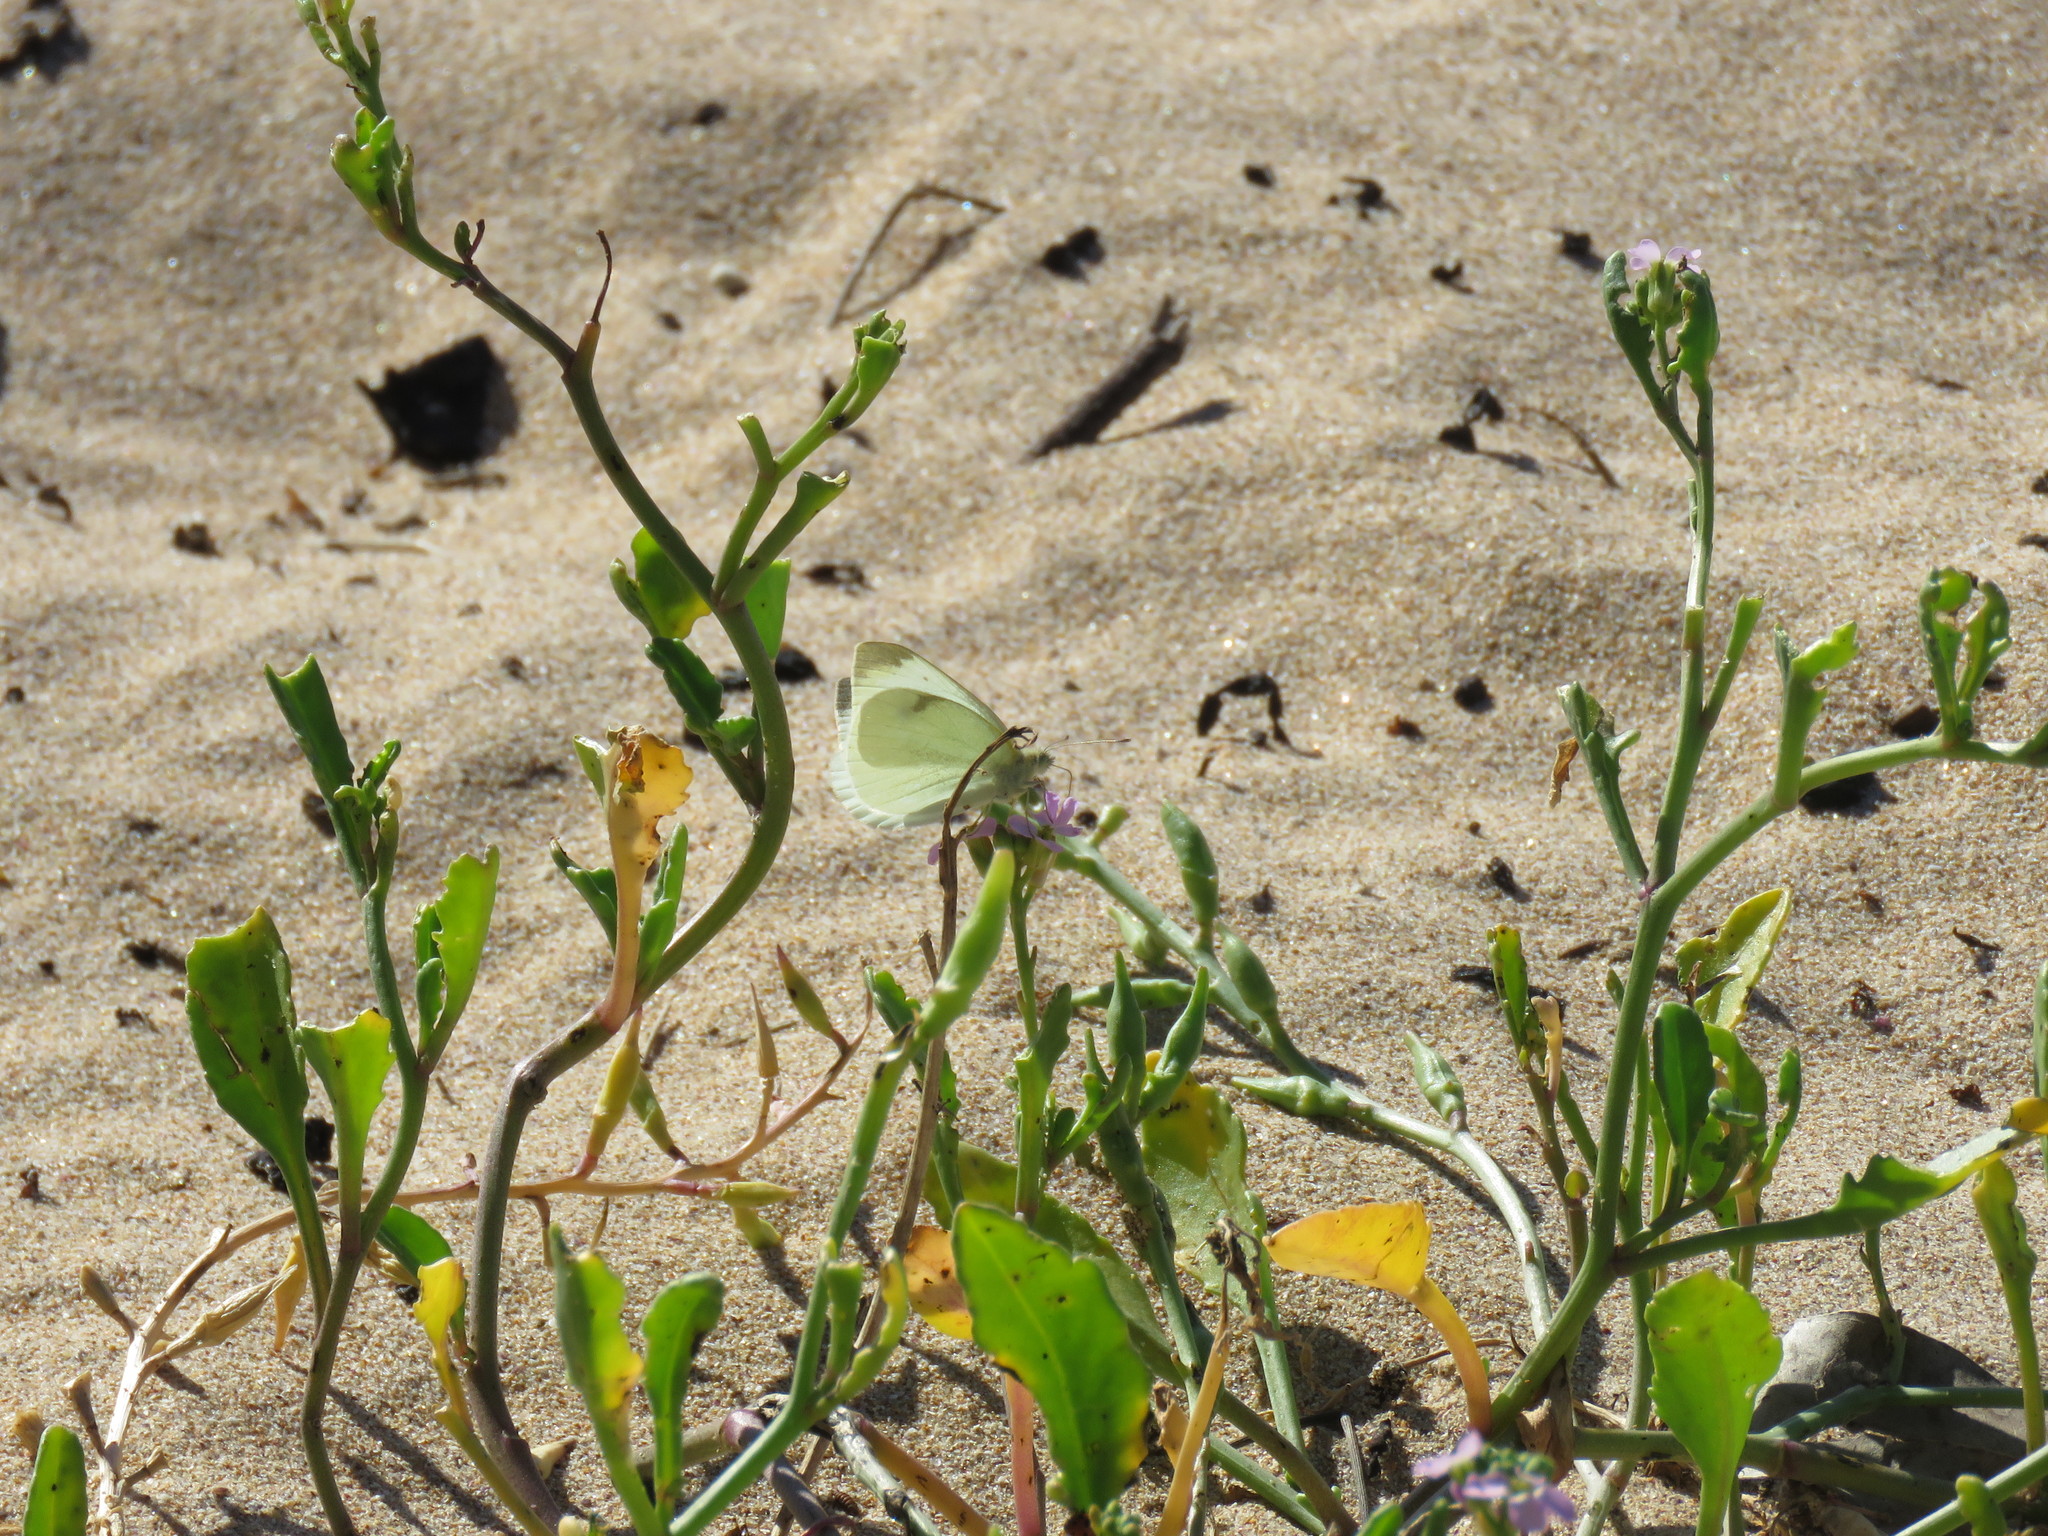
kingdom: Animalia
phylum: Arthropoda
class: Insecta
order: Lepidoptera
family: Pieridae
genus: Pieris
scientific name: Pieris rapae
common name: Small white
